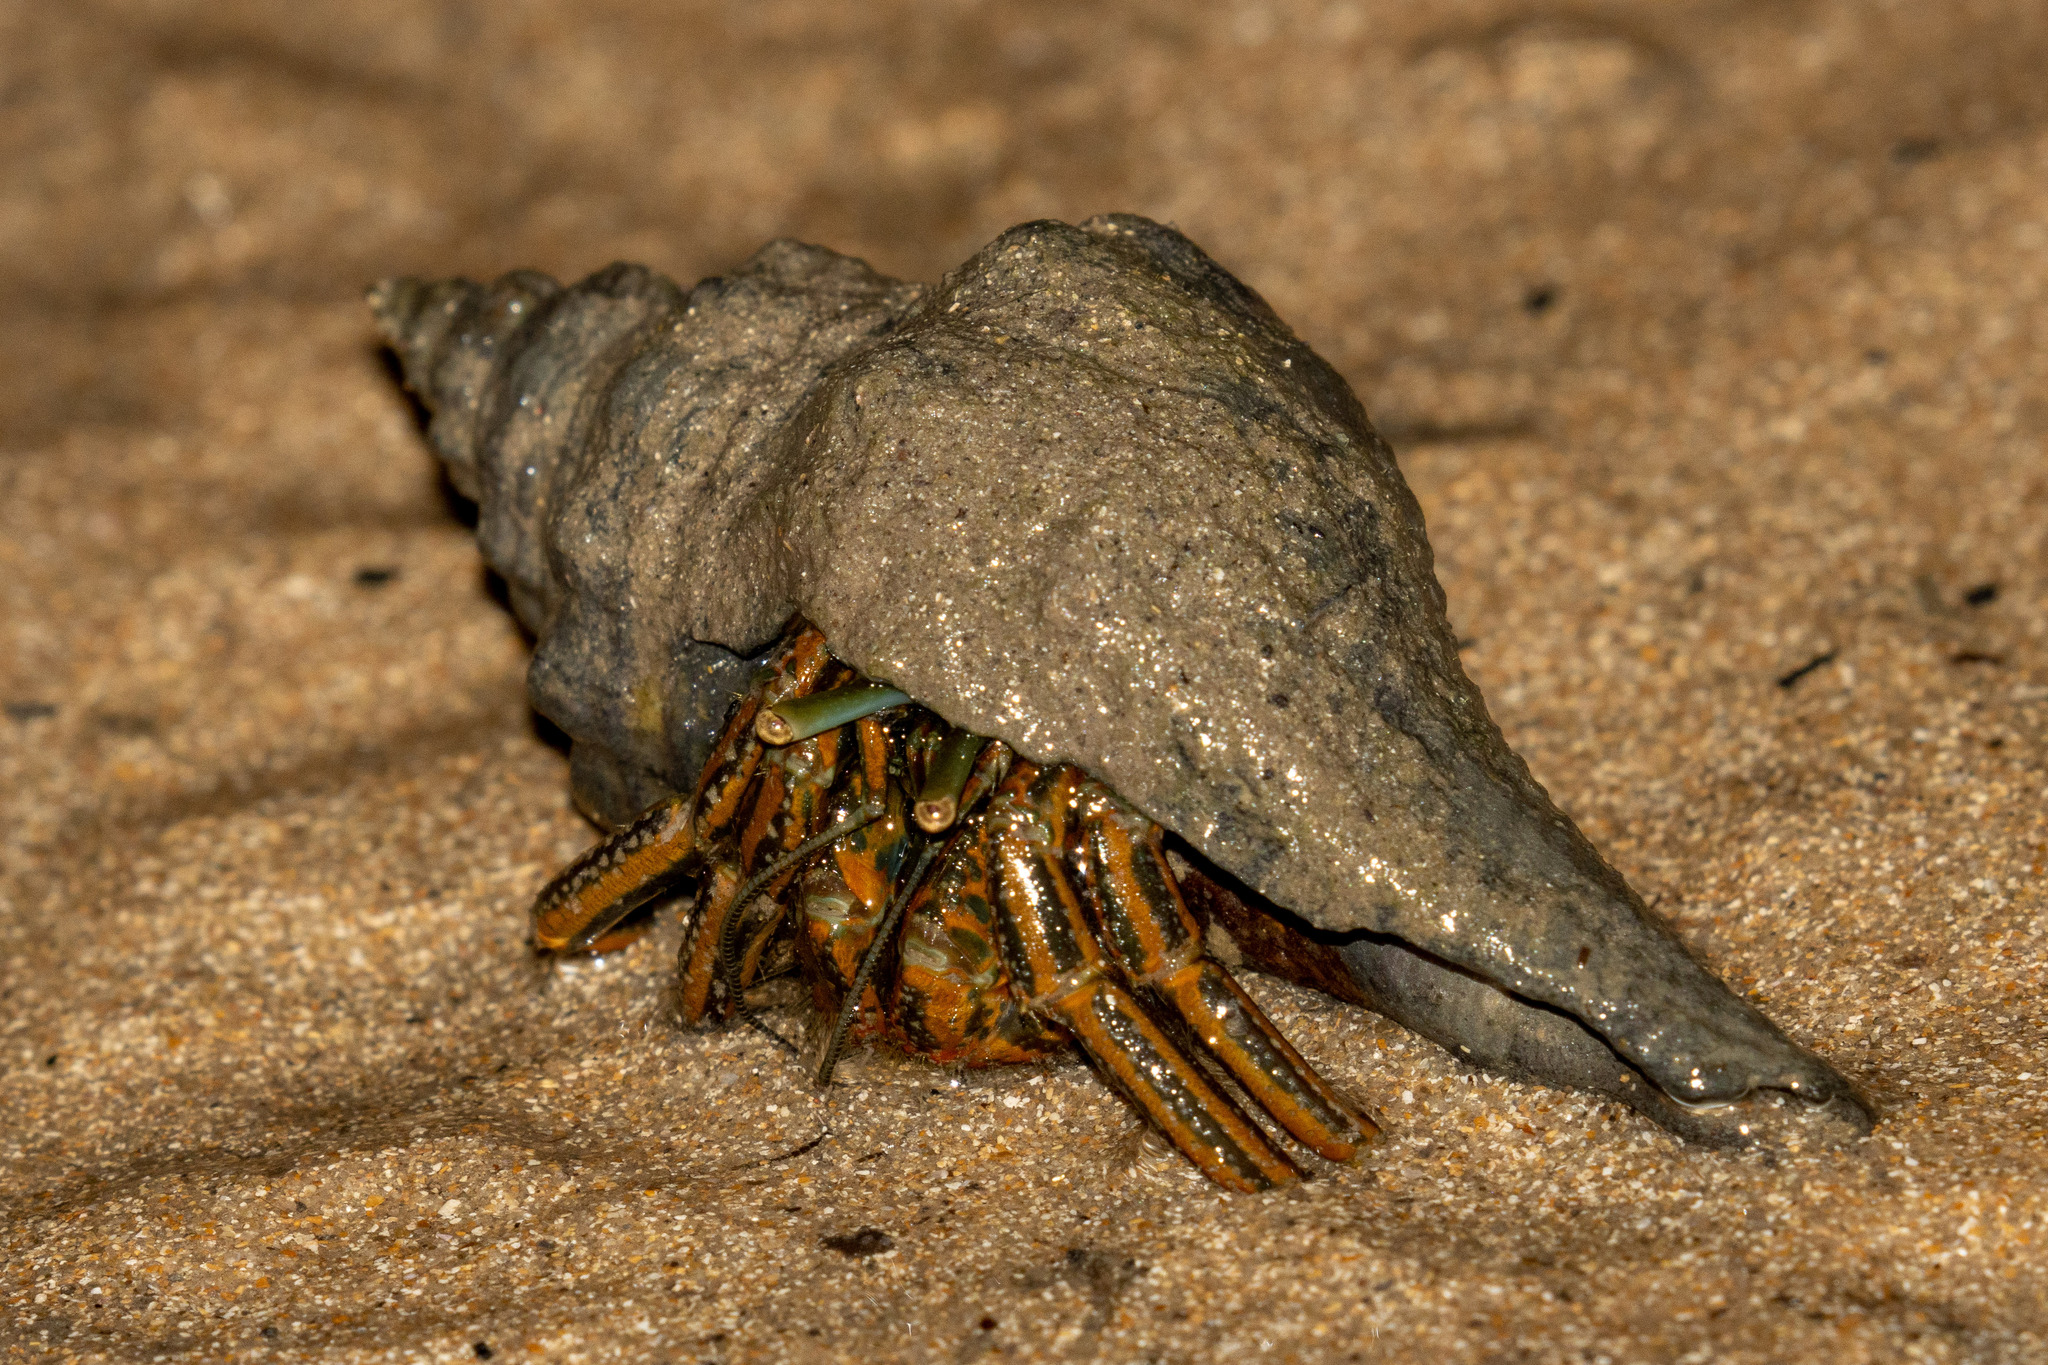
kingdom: Animalia
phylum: Arthropoda
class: Malacostraca
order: Decapoda
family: Diogenidae
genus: Clibanarius
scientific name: Clibanarius sclopetarius
